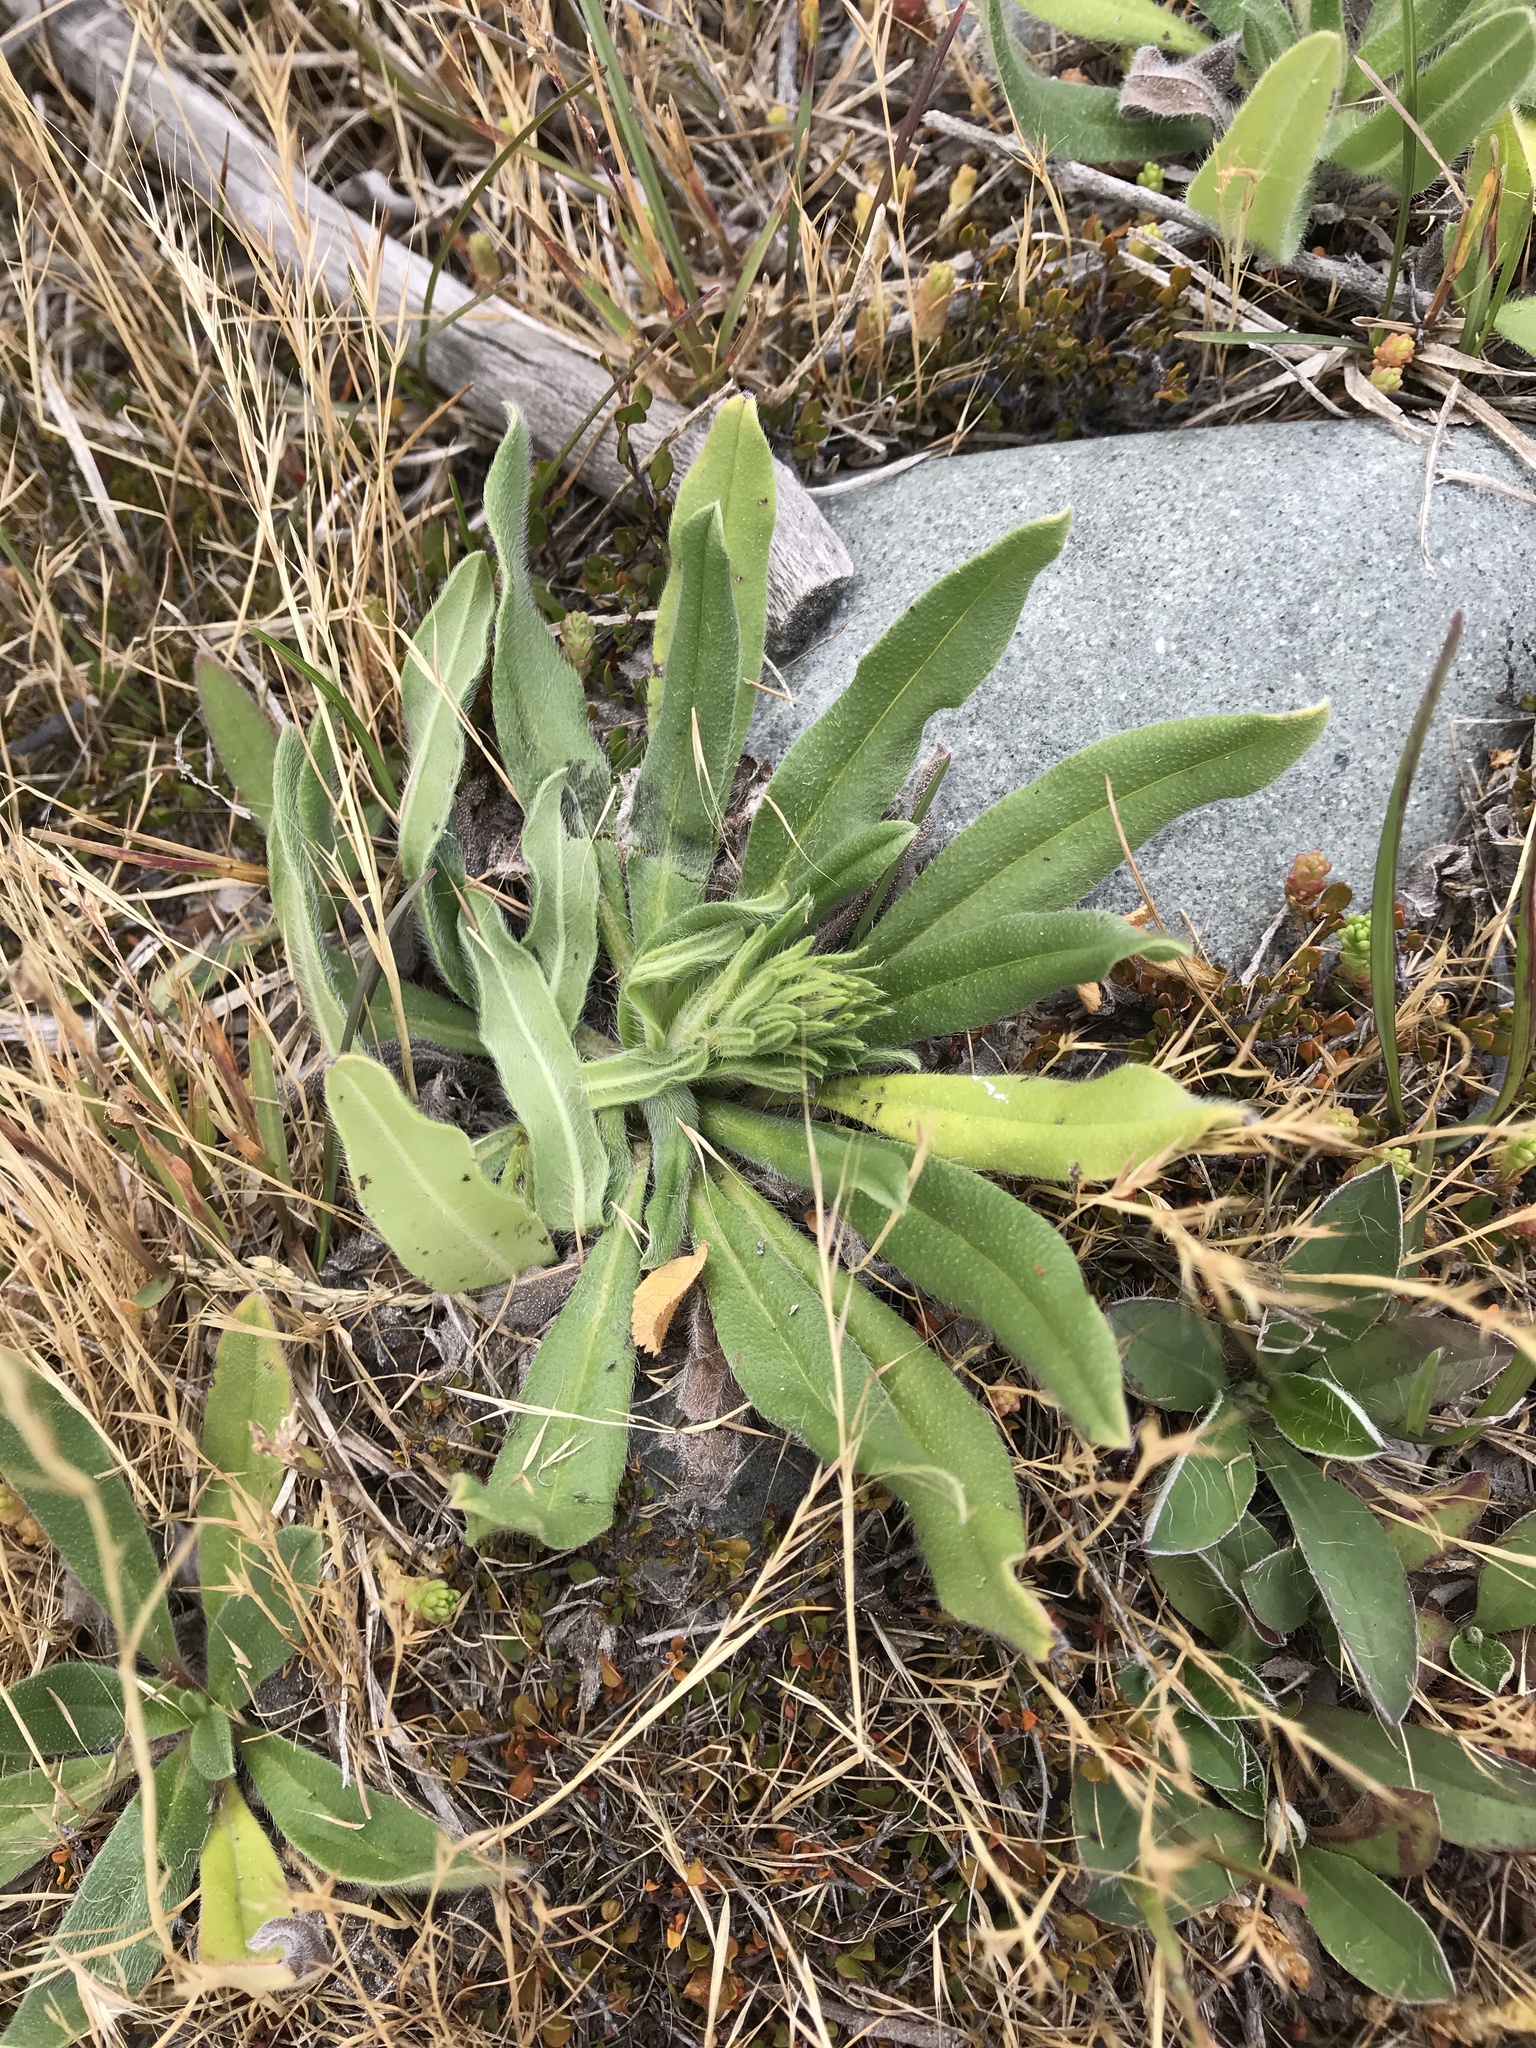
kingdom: Plantae
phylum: Tracheophyta
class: Magnoliopsida
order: Boraginales
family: Boraginaceae
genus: Echium
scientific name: Echium vulgare
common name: Common viper's bugloss
